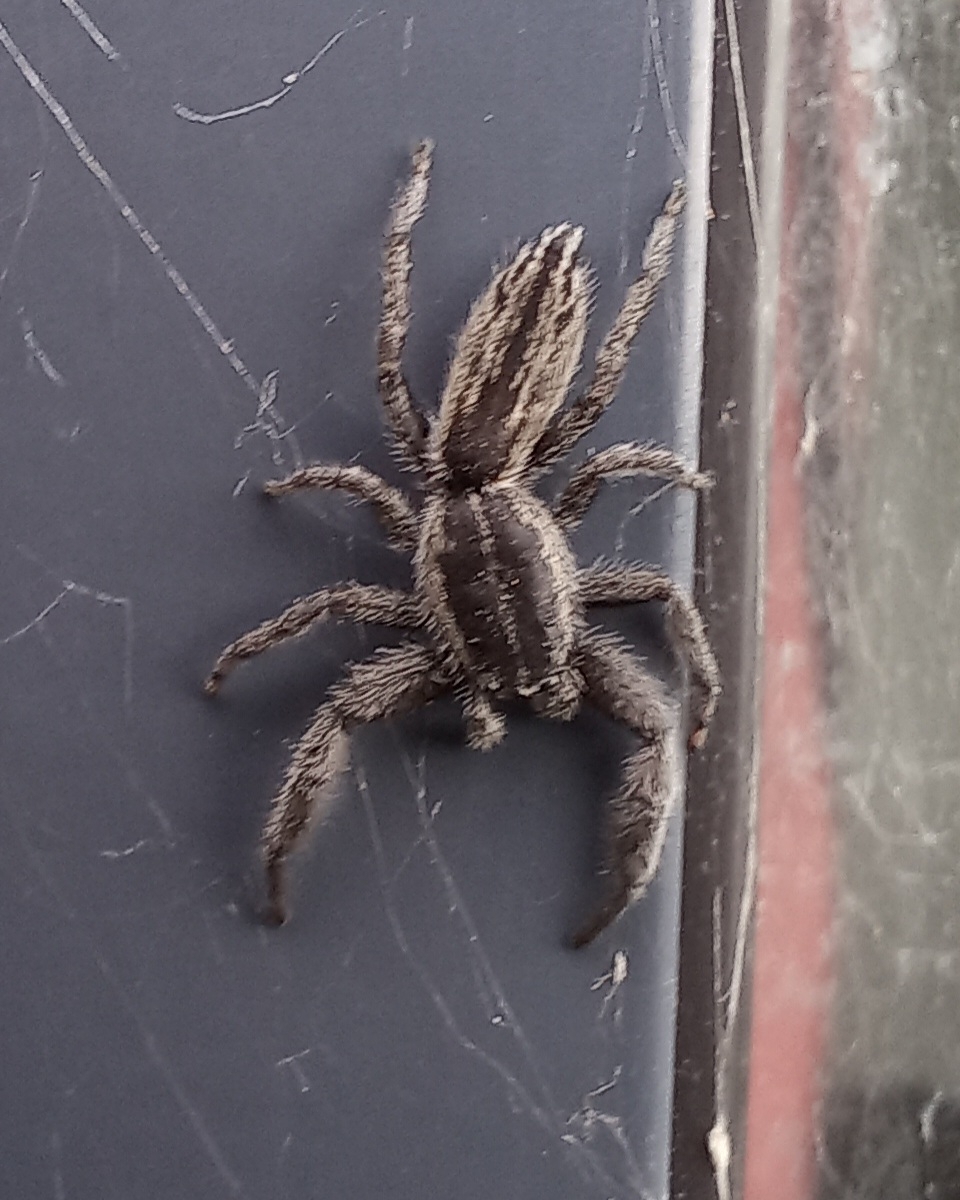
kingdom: Animalia
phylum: Arthropoda
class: Arachnida
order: Araneae
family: Salticidae
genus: Holoplatys
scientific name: Holoplatys apressus
